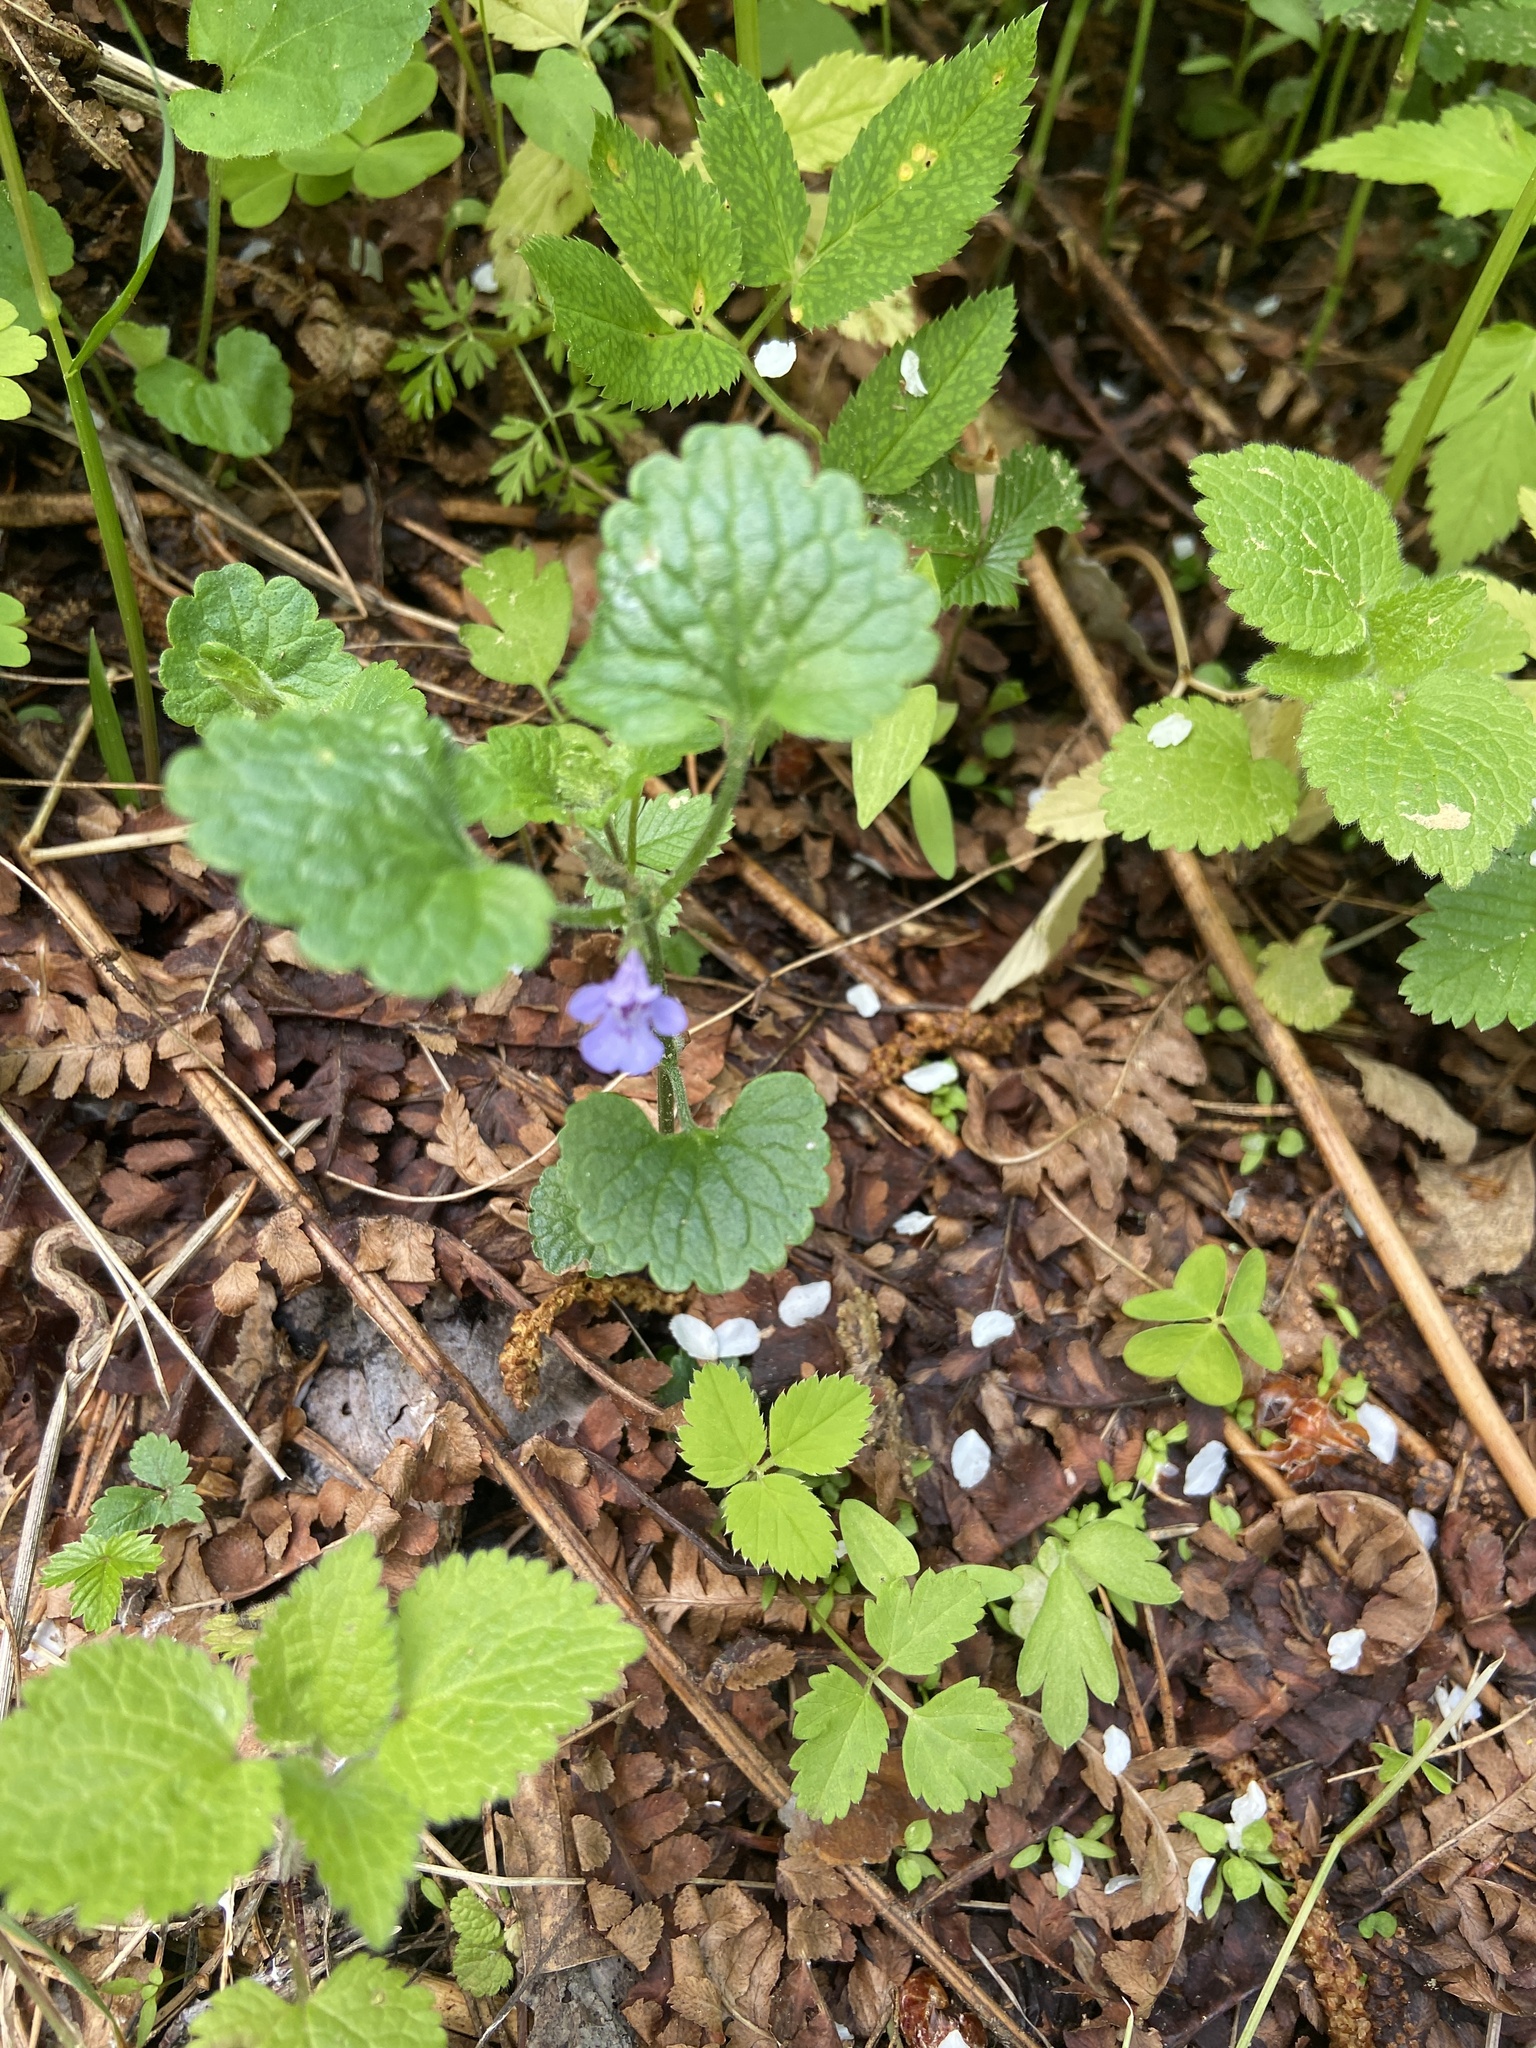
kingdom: Plantae
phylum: Tracheophyta
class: Magnoliopsida
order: Lamiales
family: Lamiaceae
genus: Glechoma
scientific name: Glechoma hederacea
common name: Ground ivy
